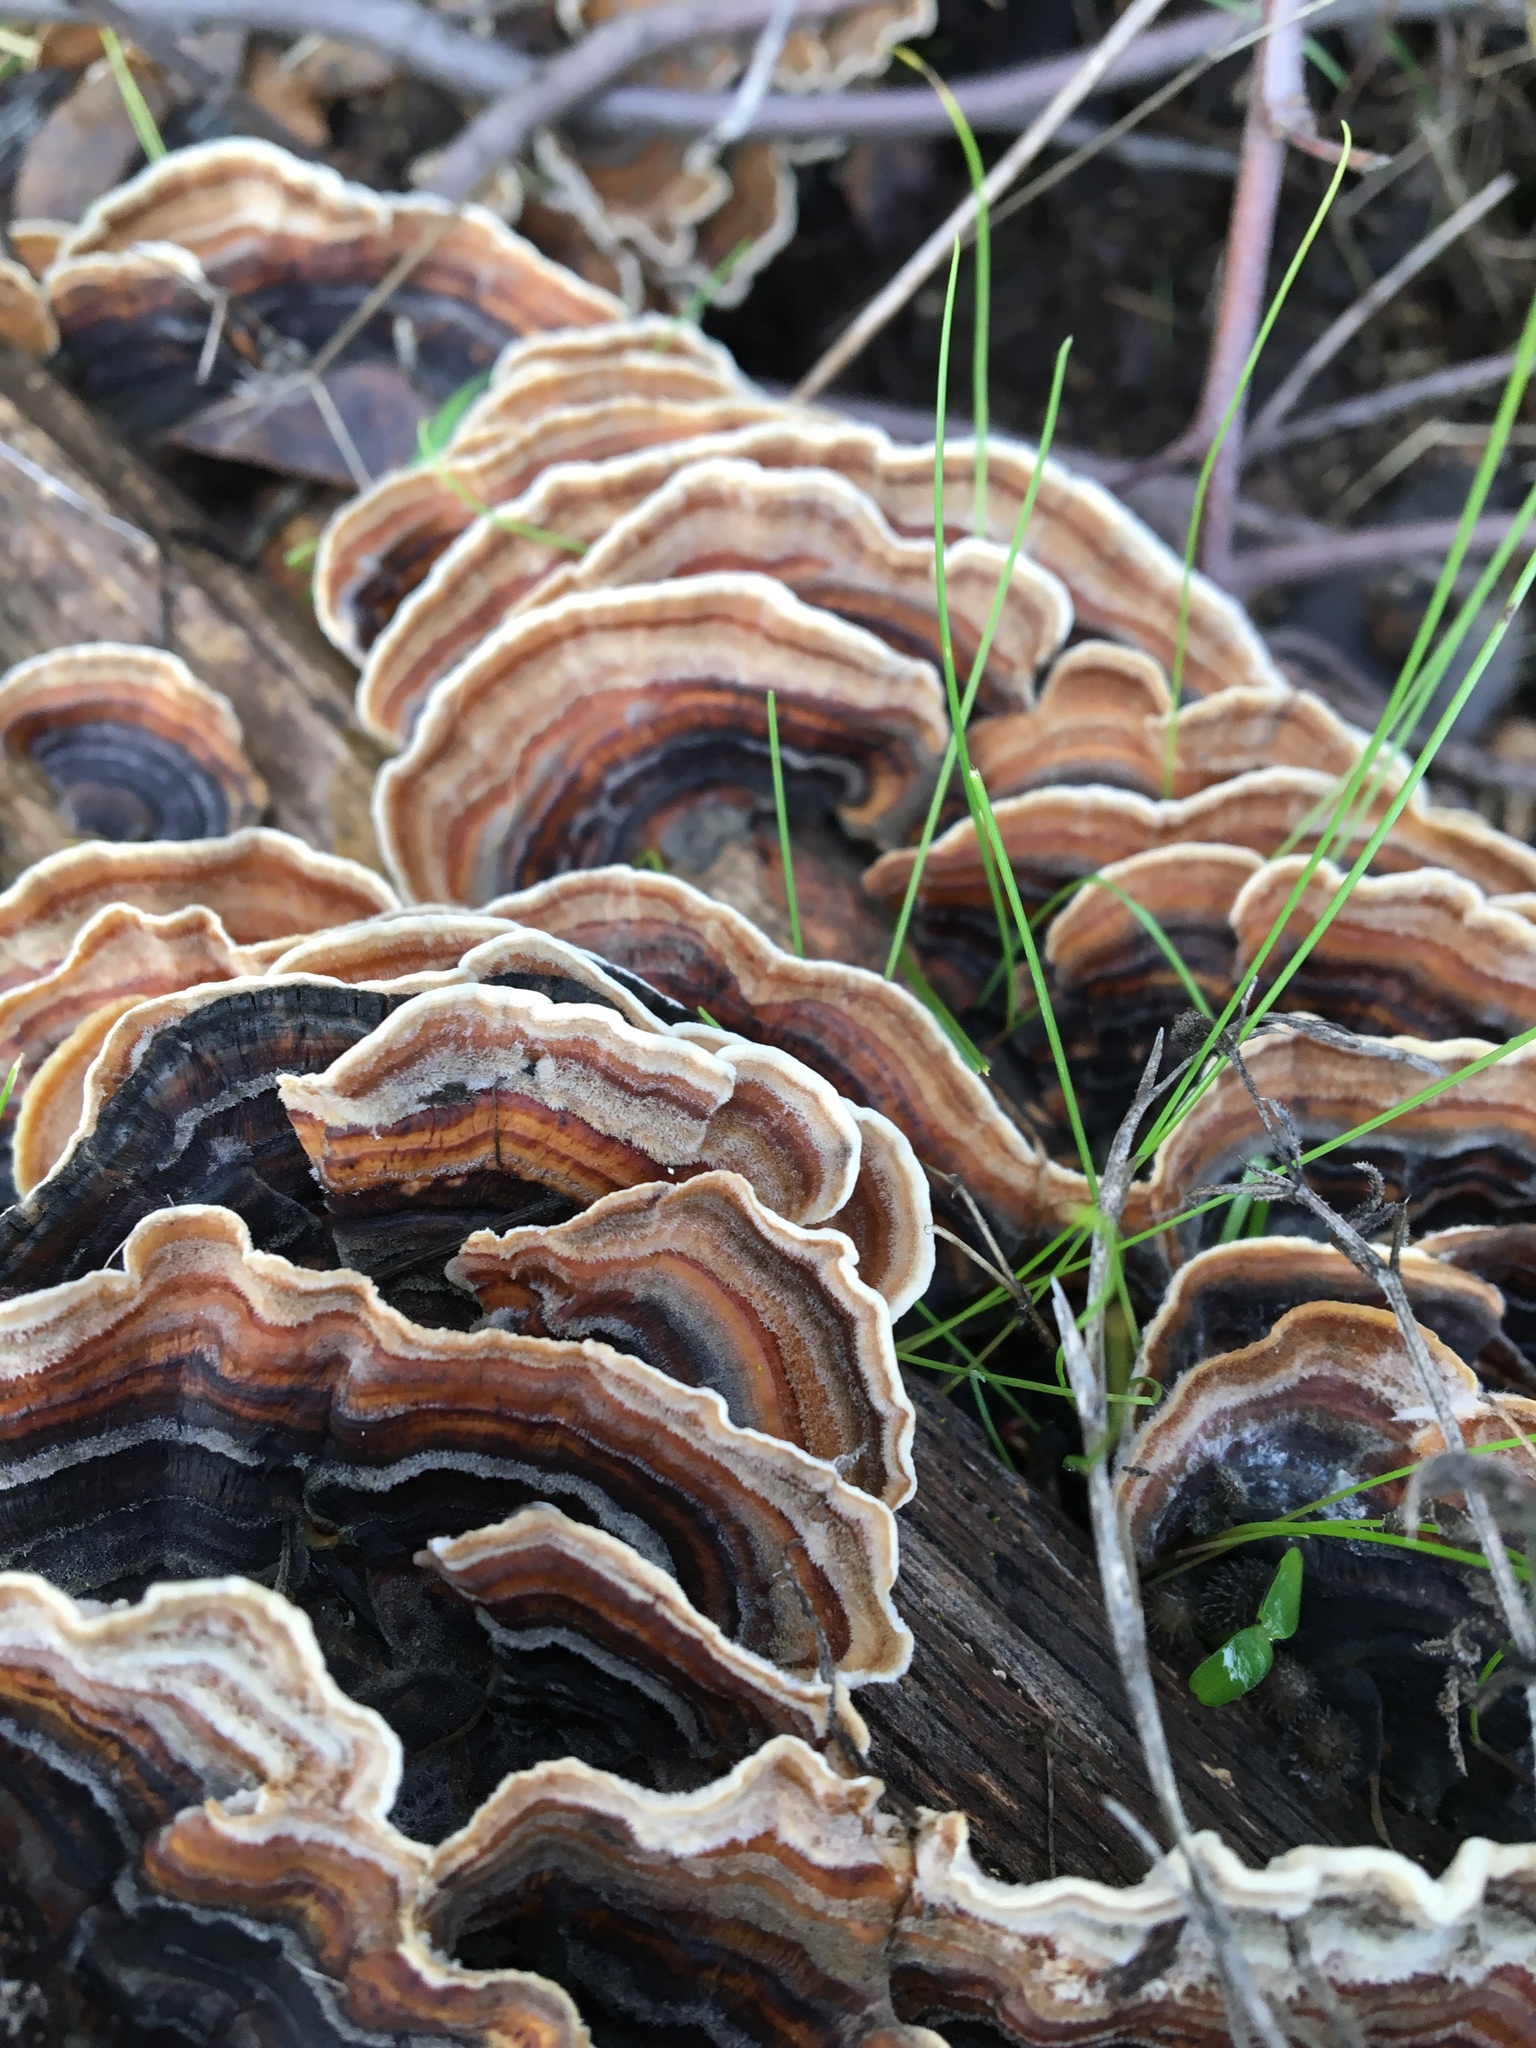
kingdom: Fungi
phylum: Basidiomycota
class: Agaricomycetes
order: Polyporales
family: Polyporaceae
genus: Trametes
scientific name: Trametes versicolor
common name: Turkeytail
